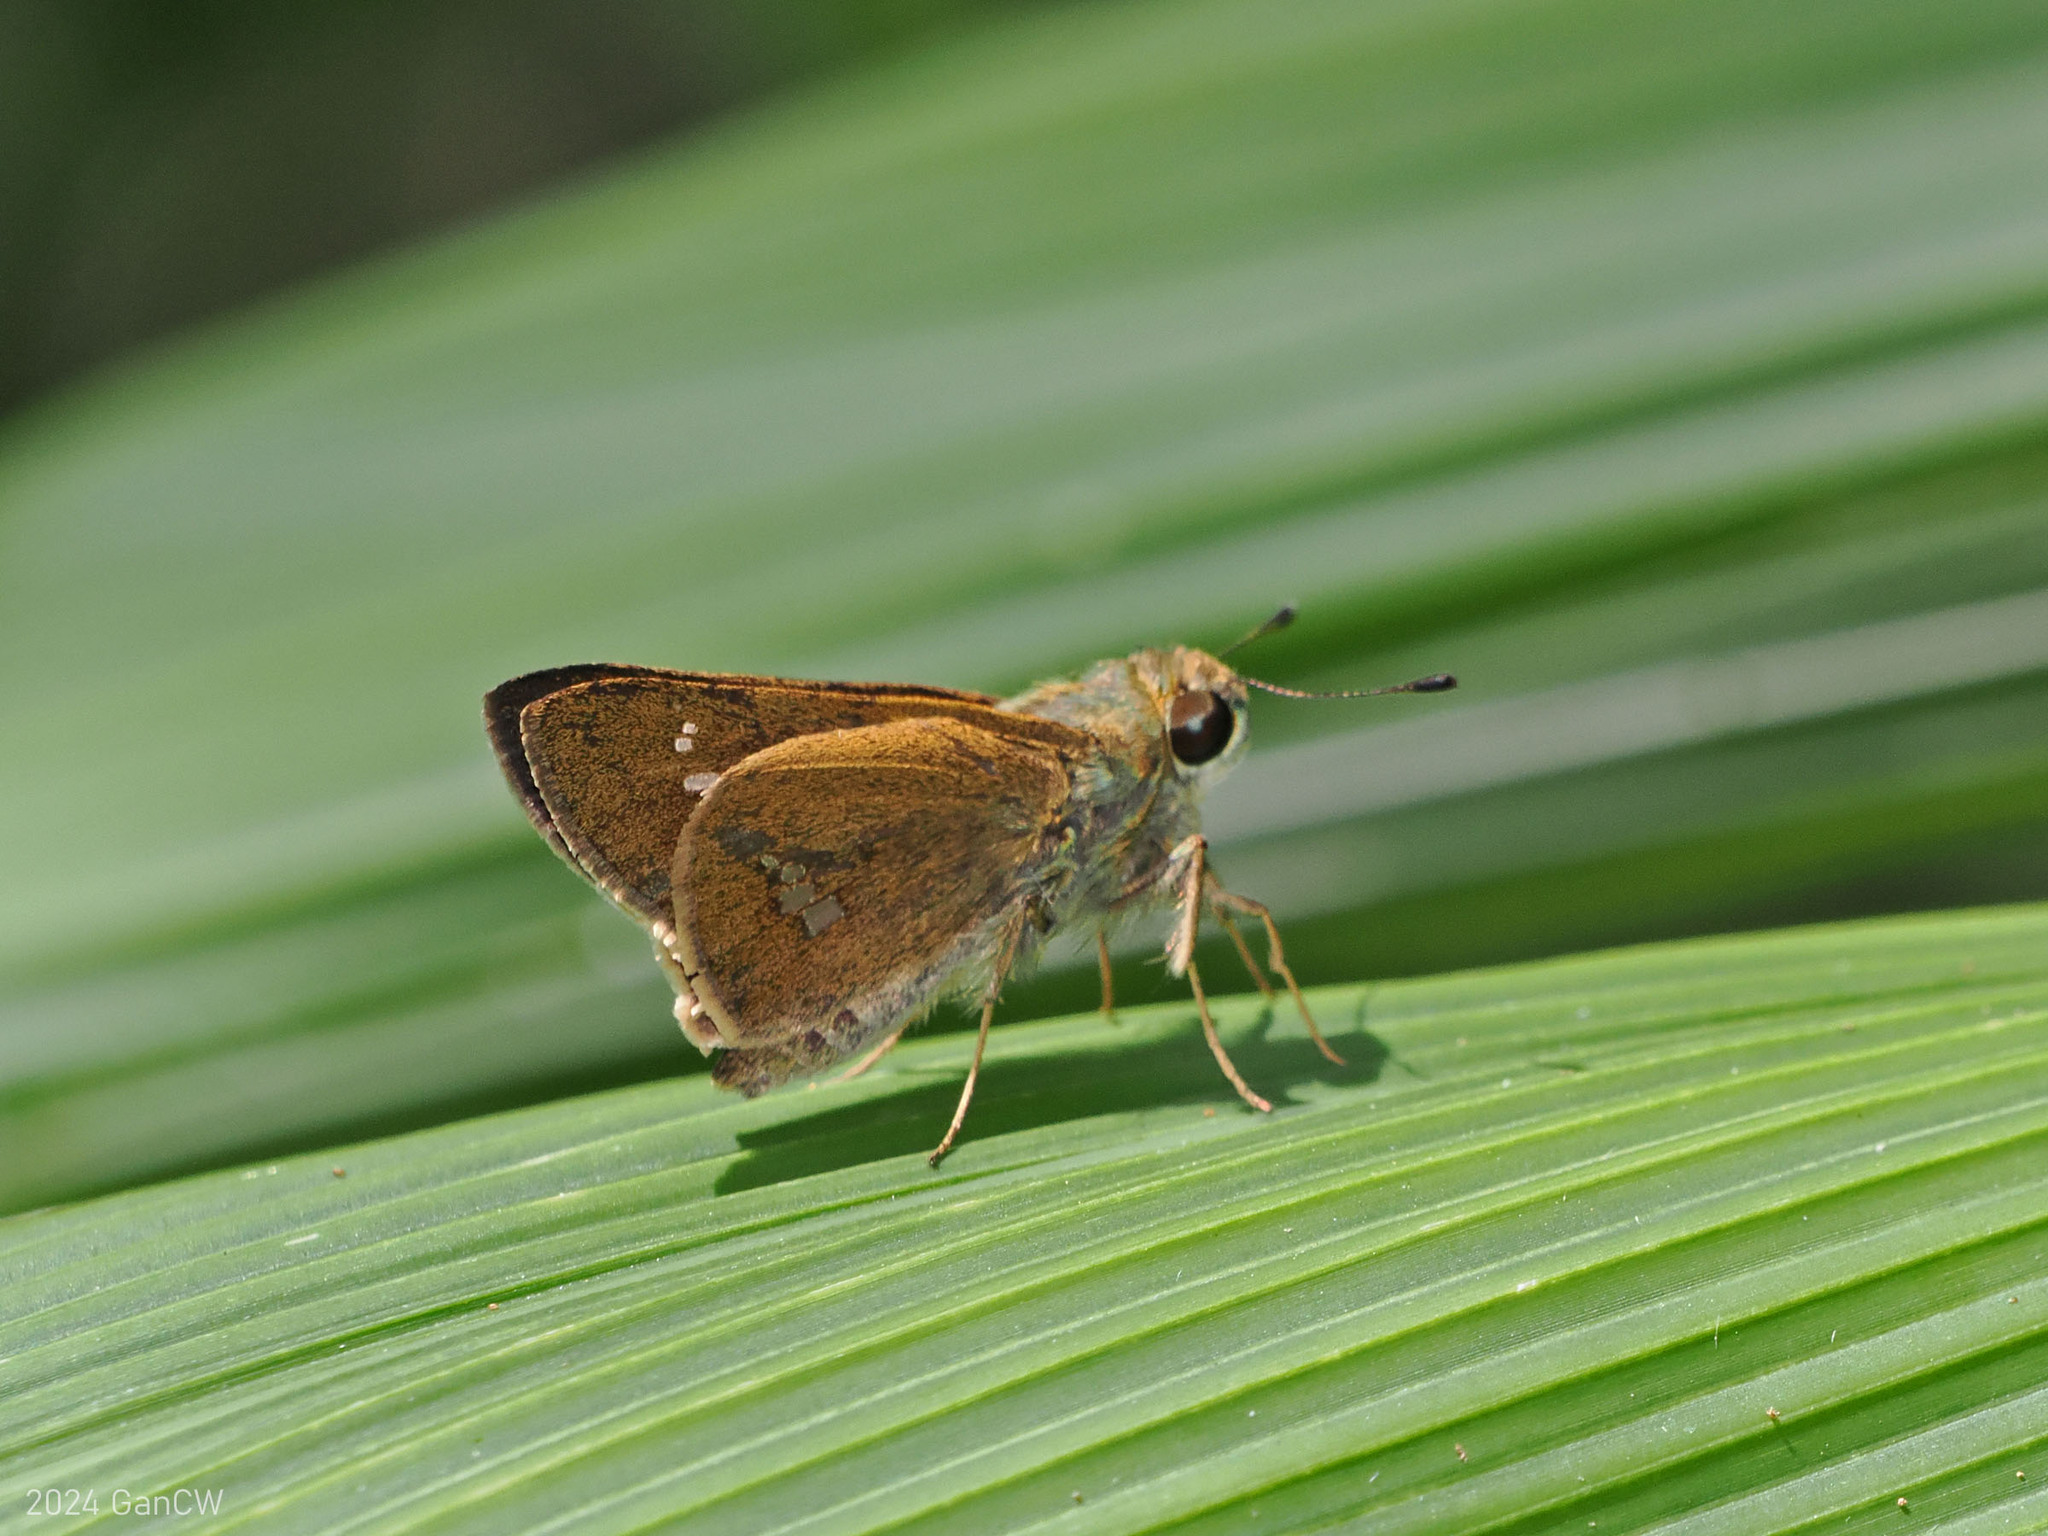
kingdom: Animalia
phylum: Arthropoda
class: Insecta
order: Lepidoptera
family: Hesperiidae
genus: Parnara
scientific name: Parnara
